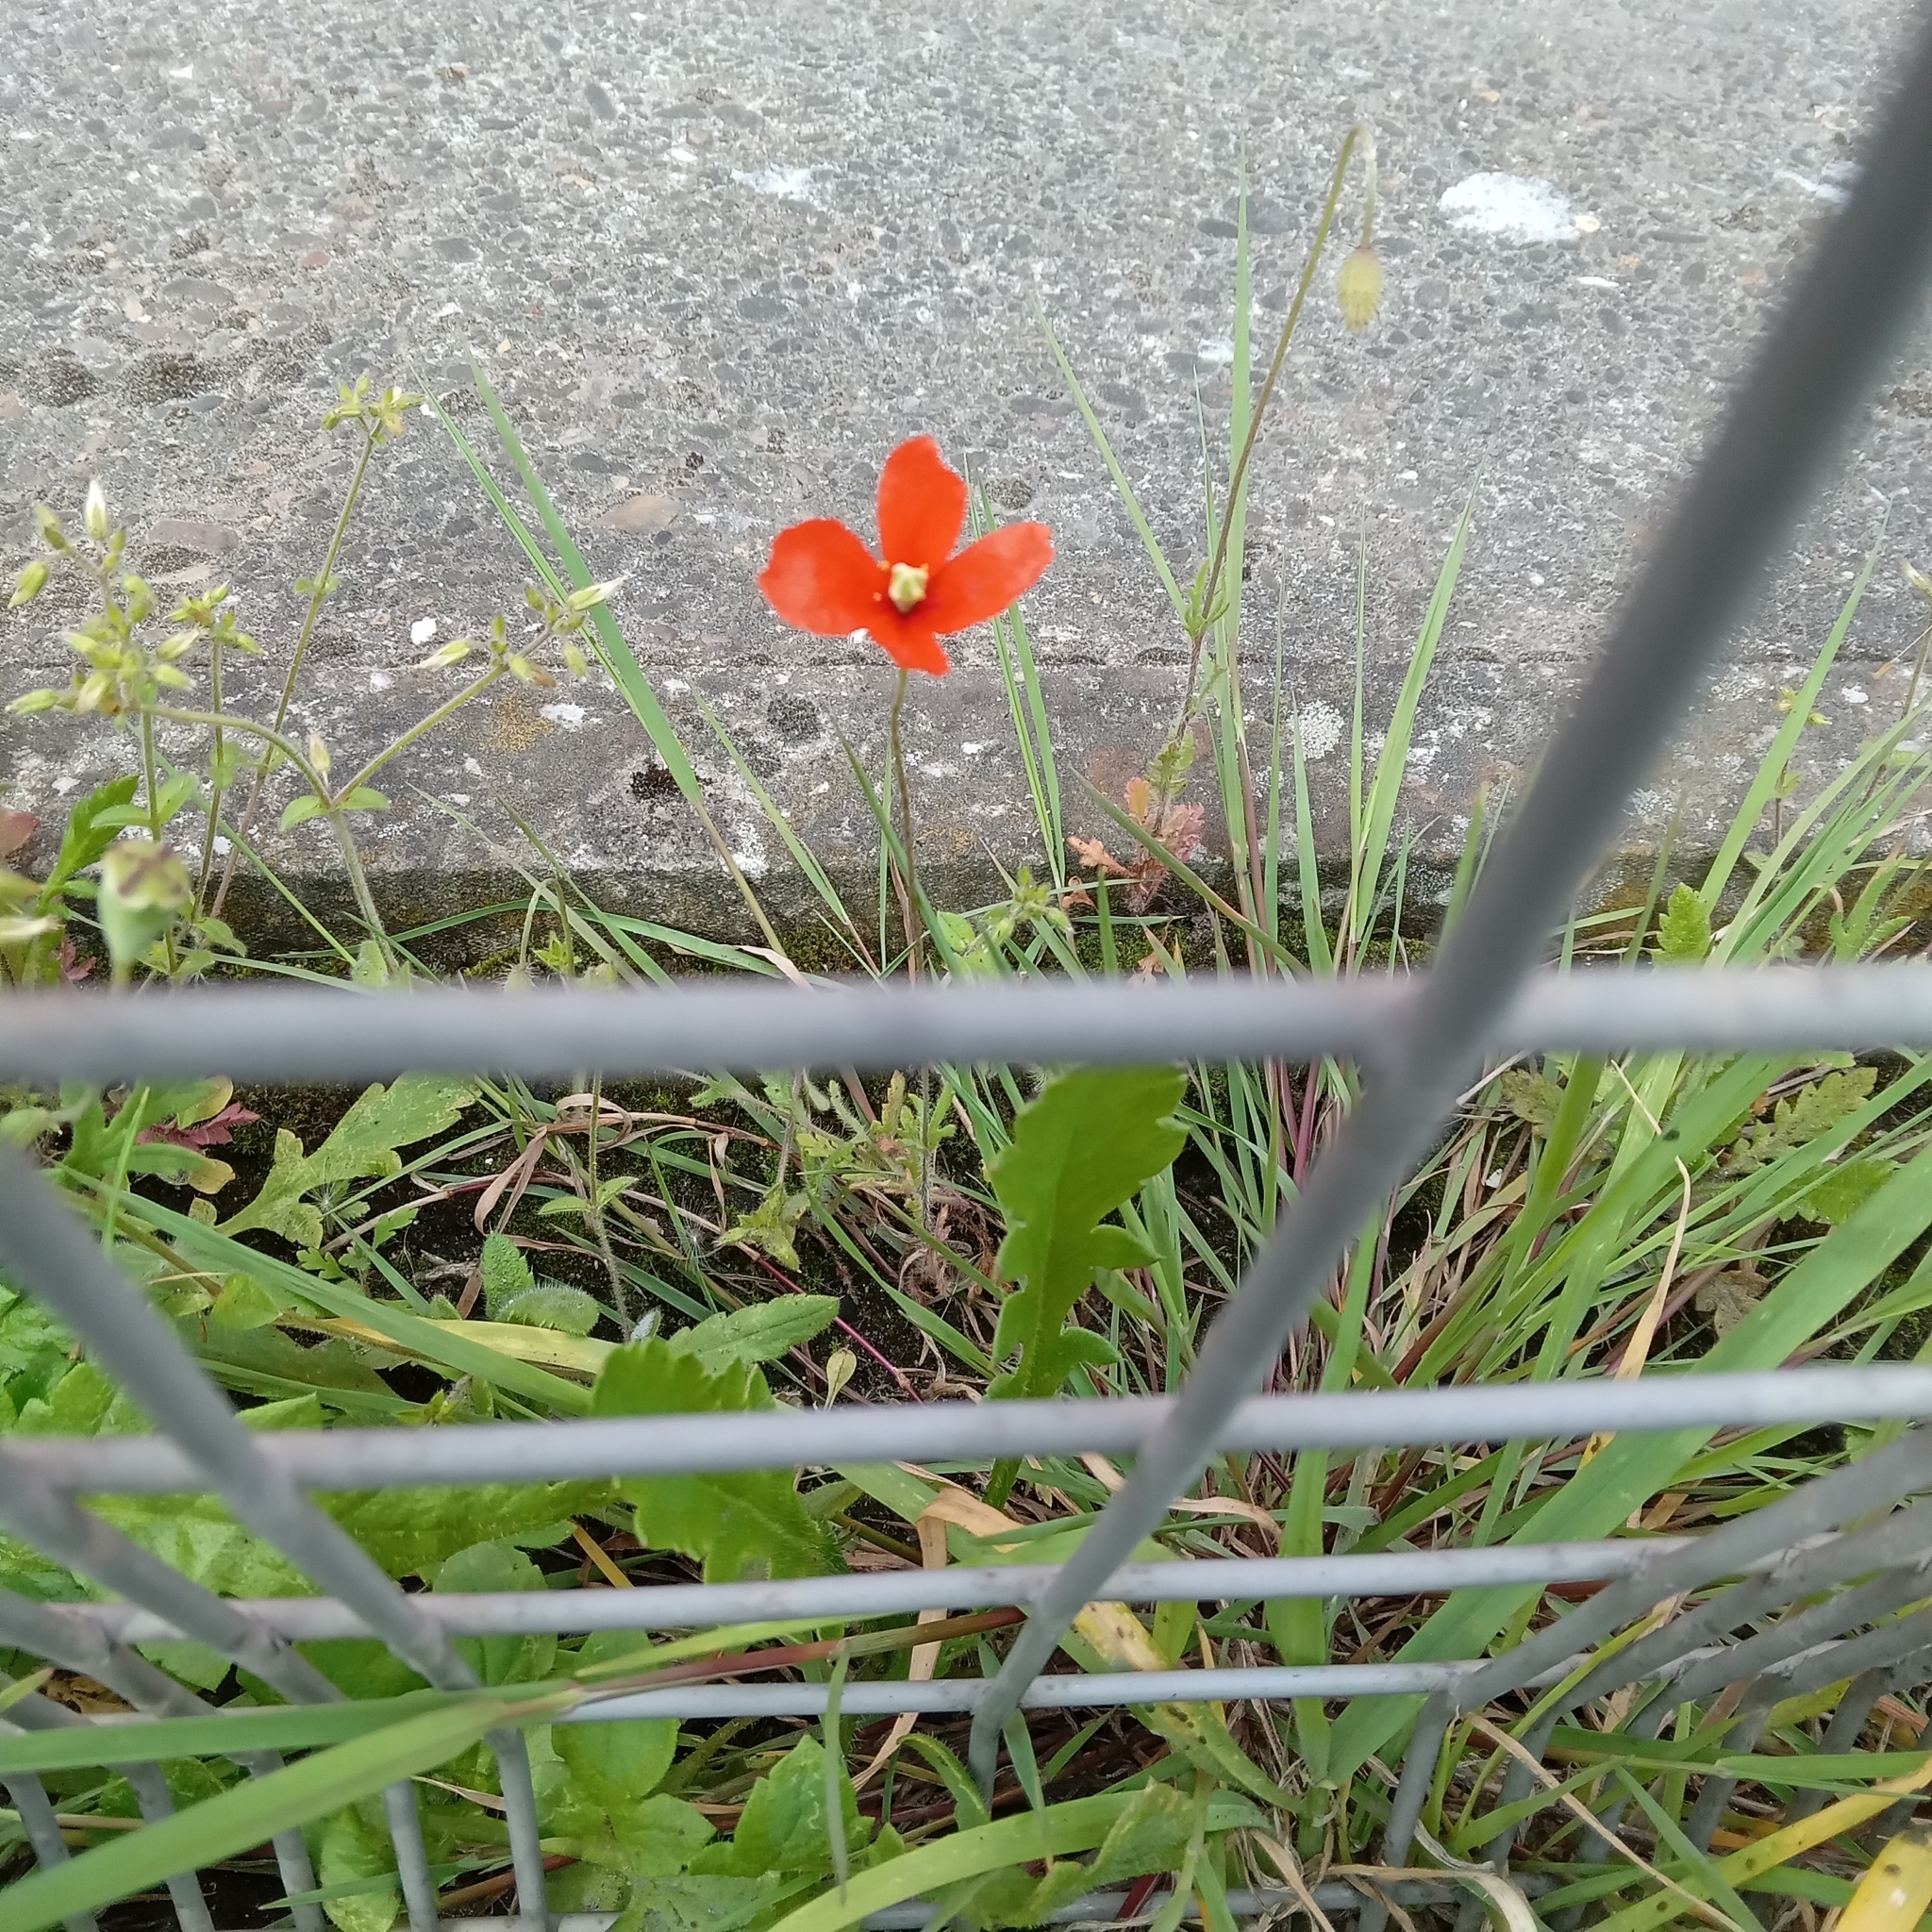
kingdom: Plantae
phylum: Tracheophyta
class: Magnoliopsida
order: Ranunculales
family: Papaveraceae
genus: Papaver
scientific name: Papaver dubium
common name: Long-headed poppy
